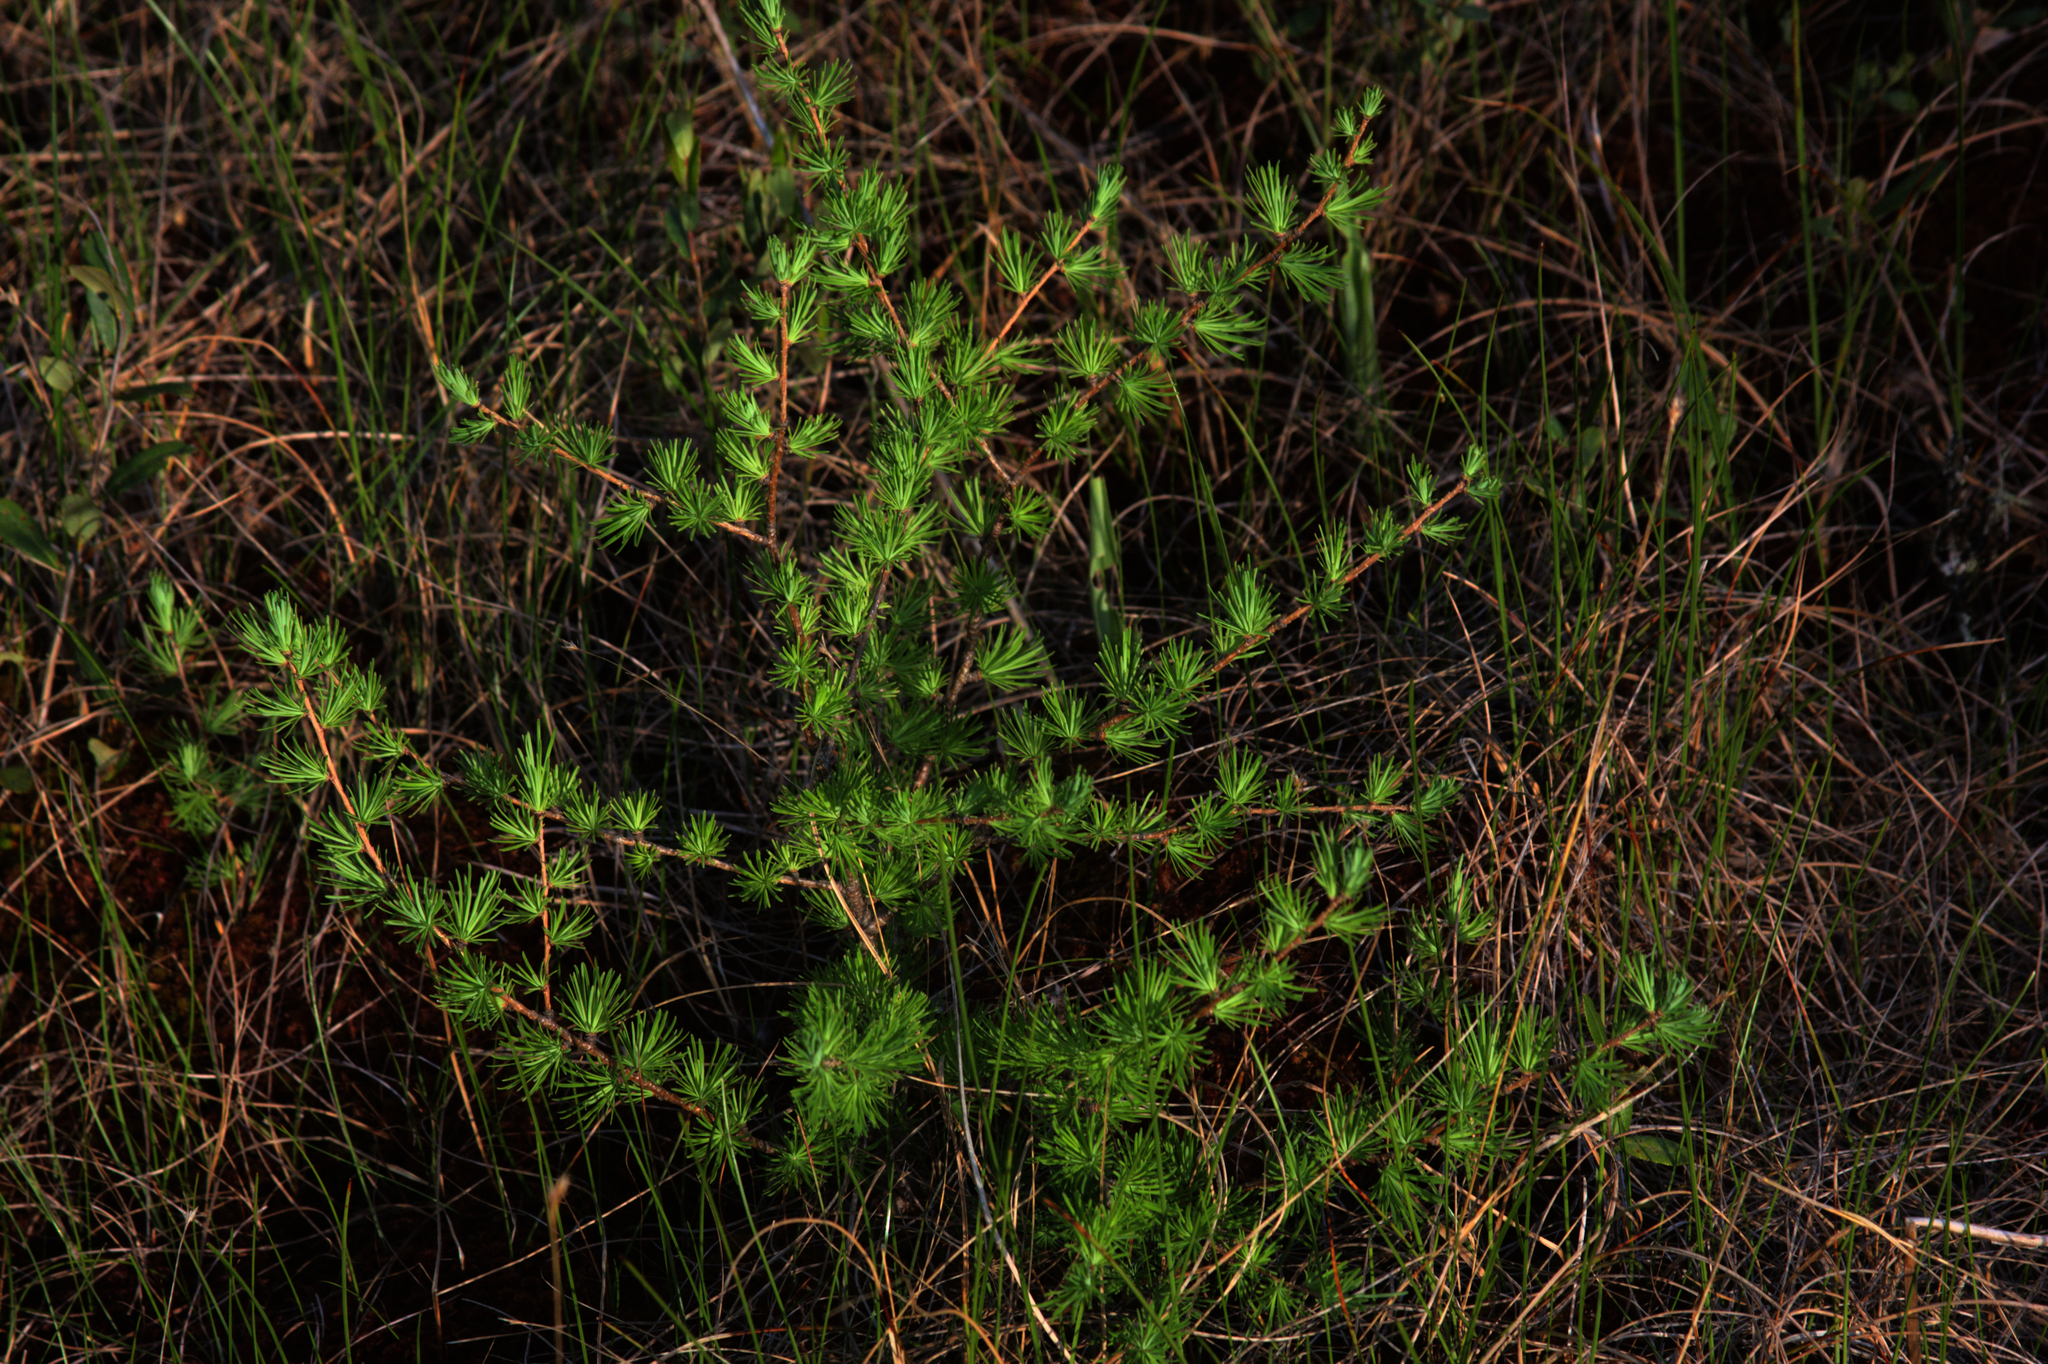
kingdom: Plantae
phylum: Tracheophyta
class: Pinopsida
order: Pinales
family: Pinaceae
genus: Larix
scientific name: Larix laricina
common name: American larch
